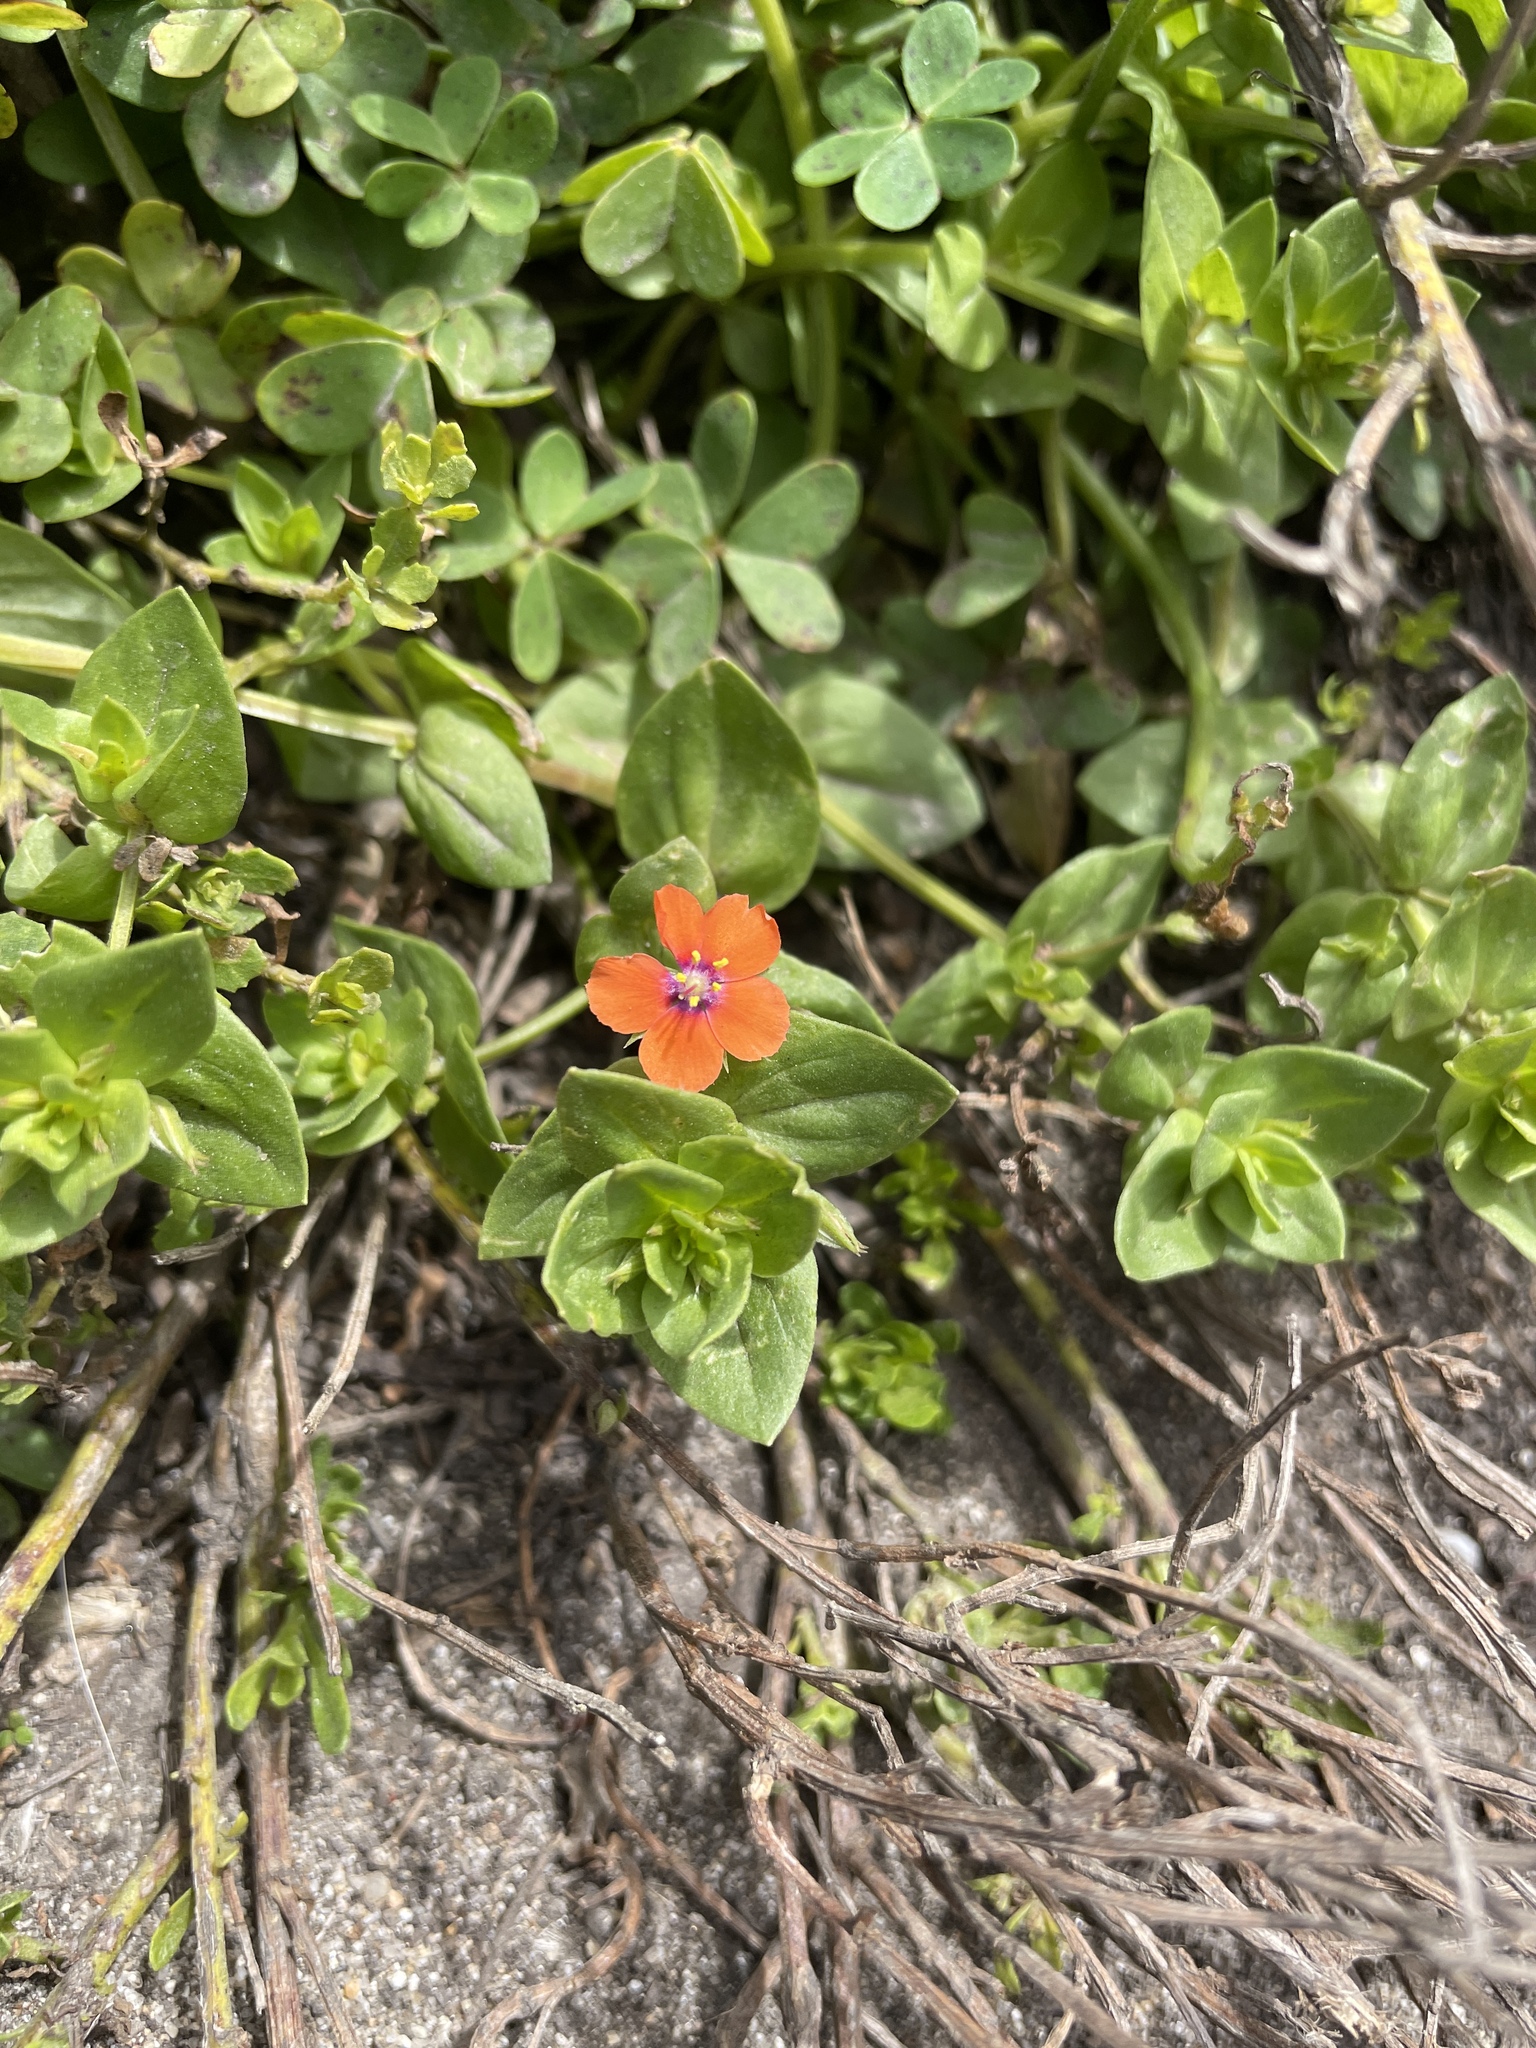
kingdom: Plantae
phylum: Tracheophyta
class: Magnoliopsida
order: Ericales
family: Primulaceae
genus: Lysimachia
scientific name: Lysimachia arvensis
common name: Scarlet pimpernel
